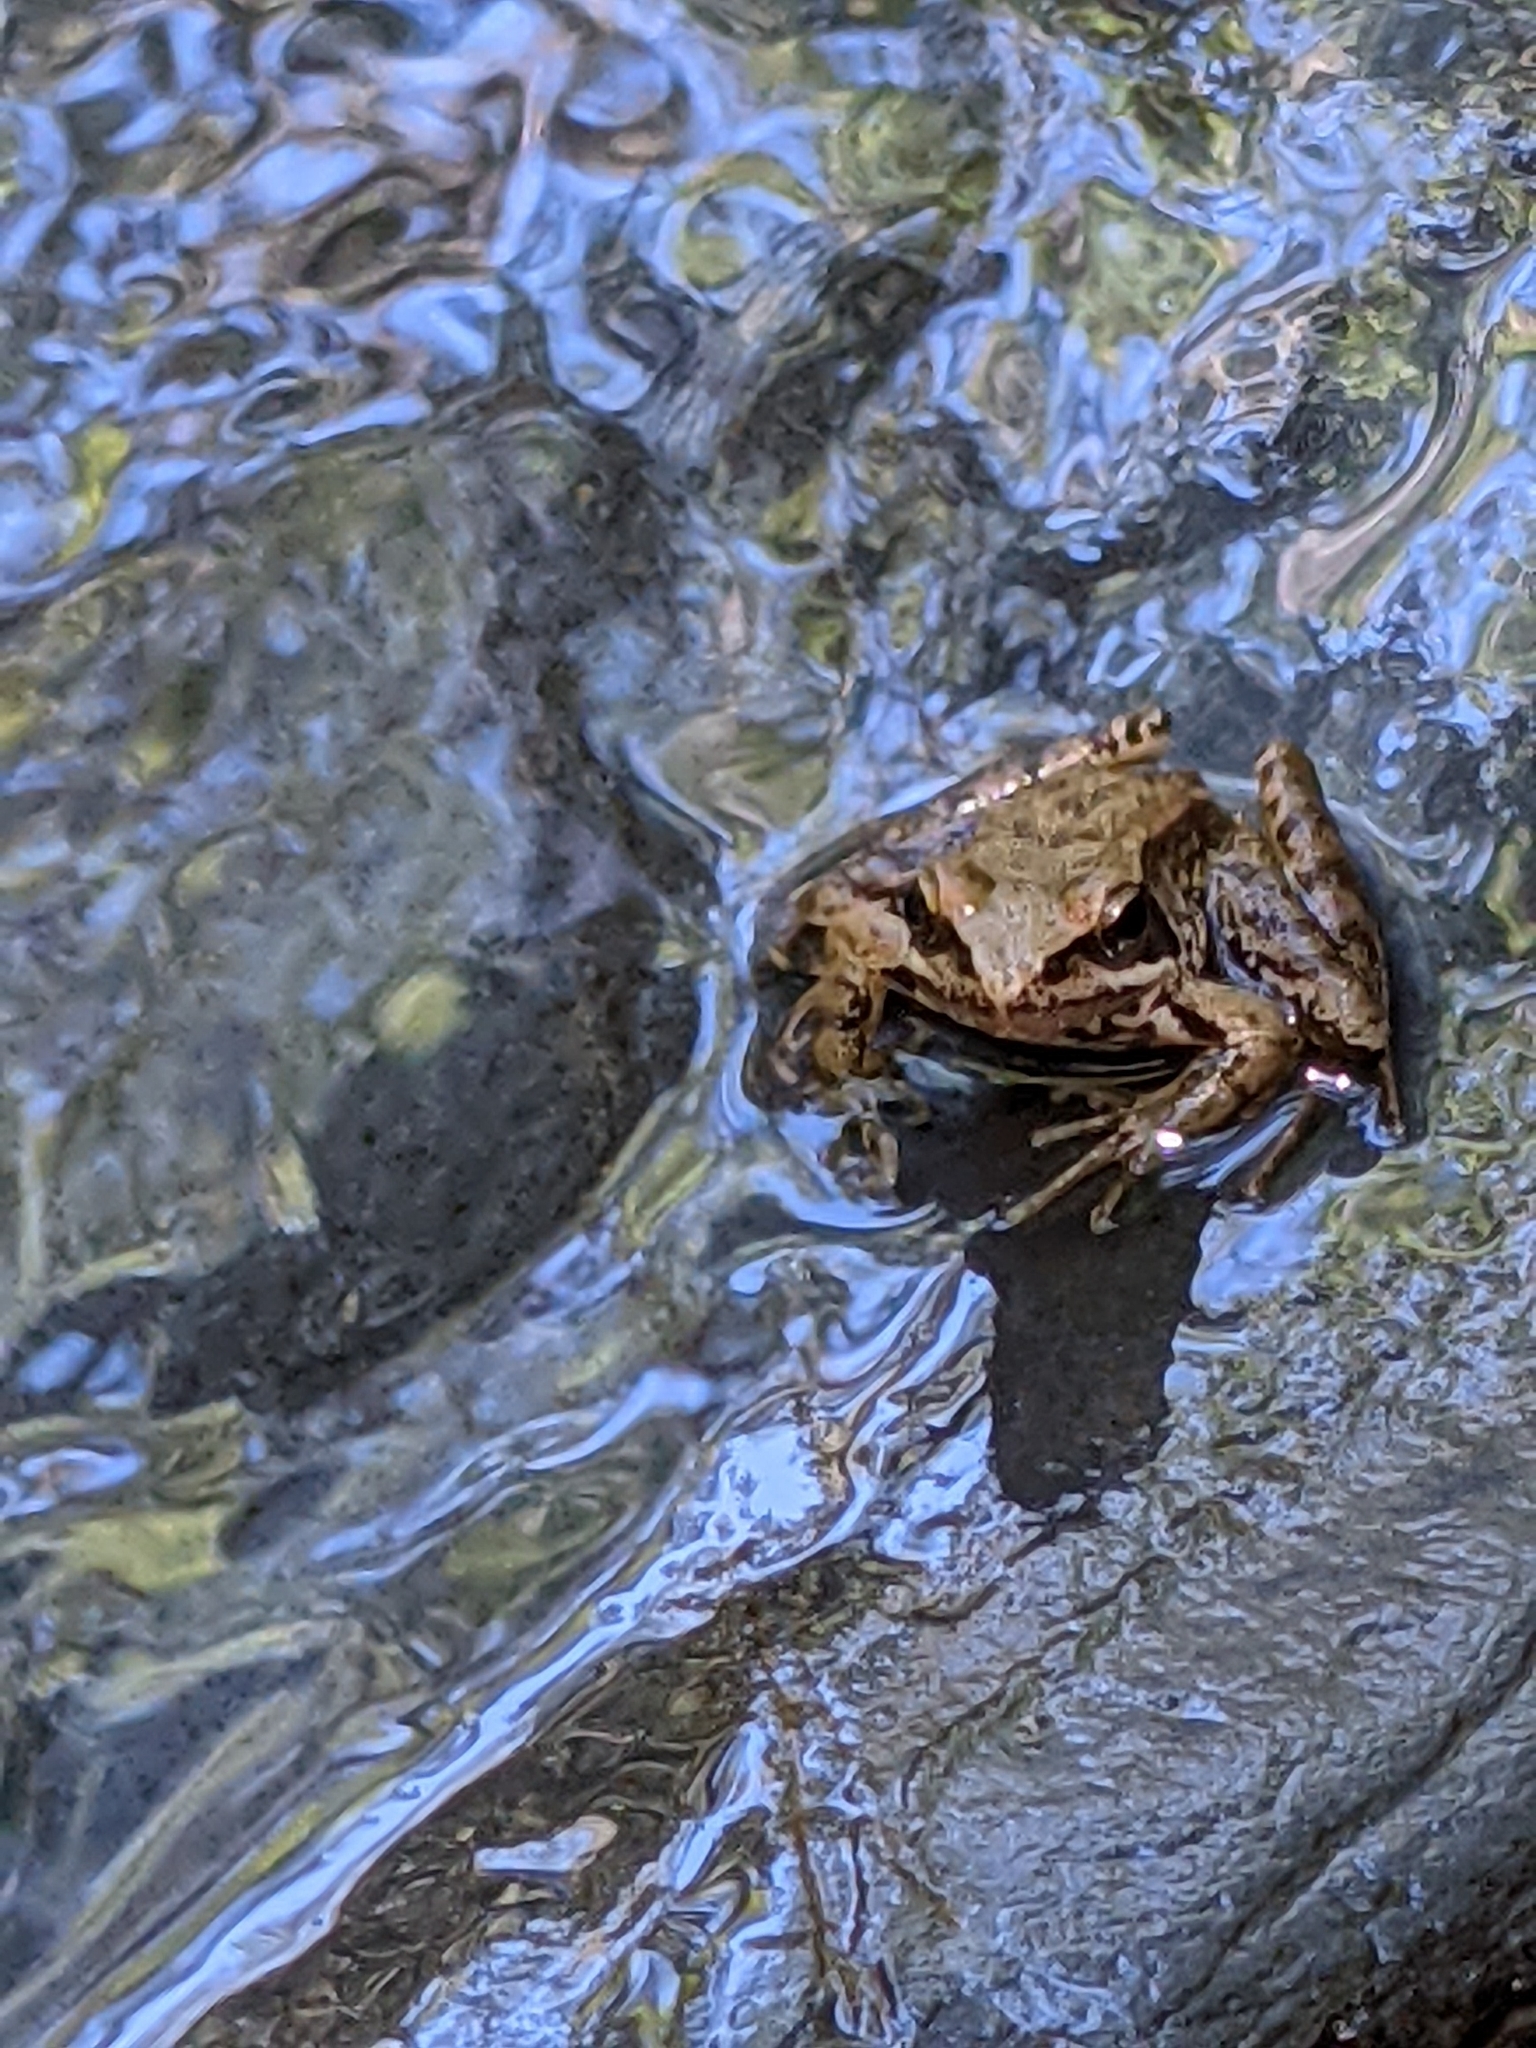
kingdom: Animalia
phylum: Chordata
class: Amphibia
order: Anura
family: Ranidae
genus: Rana
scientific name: Rana iberica
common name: Iberian frog
